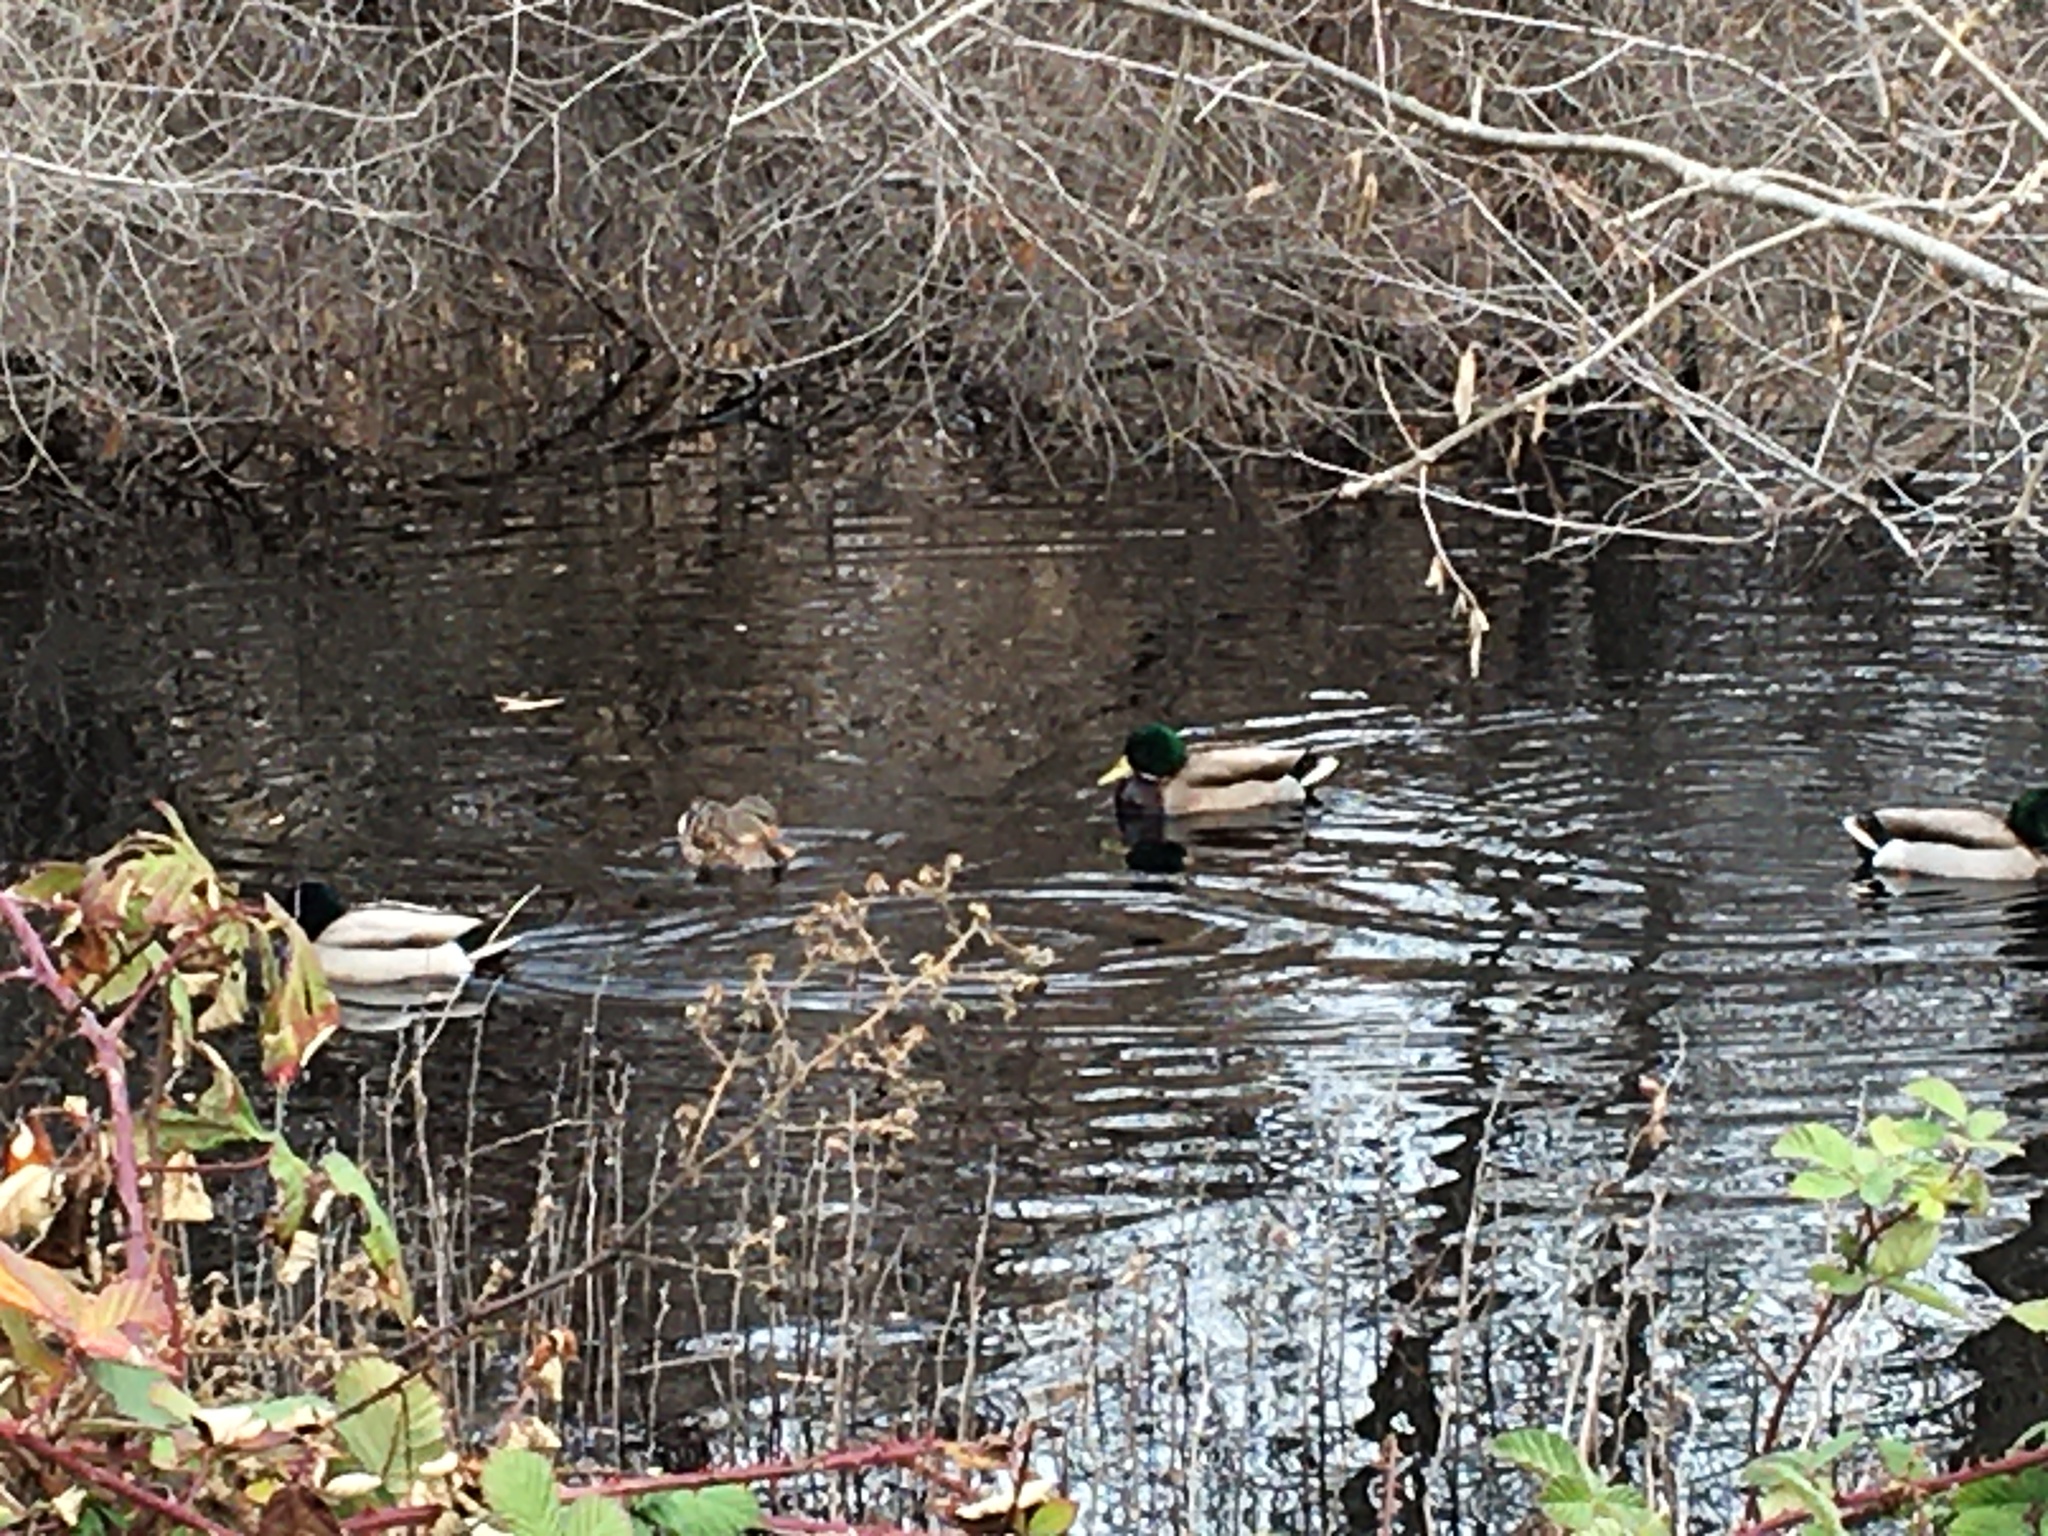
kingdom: Animalia
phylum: Chordata
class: Aves
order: Anseriformes
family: Anatidae
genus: Anas
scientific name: Anas platyrhynchos
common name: Mallard
